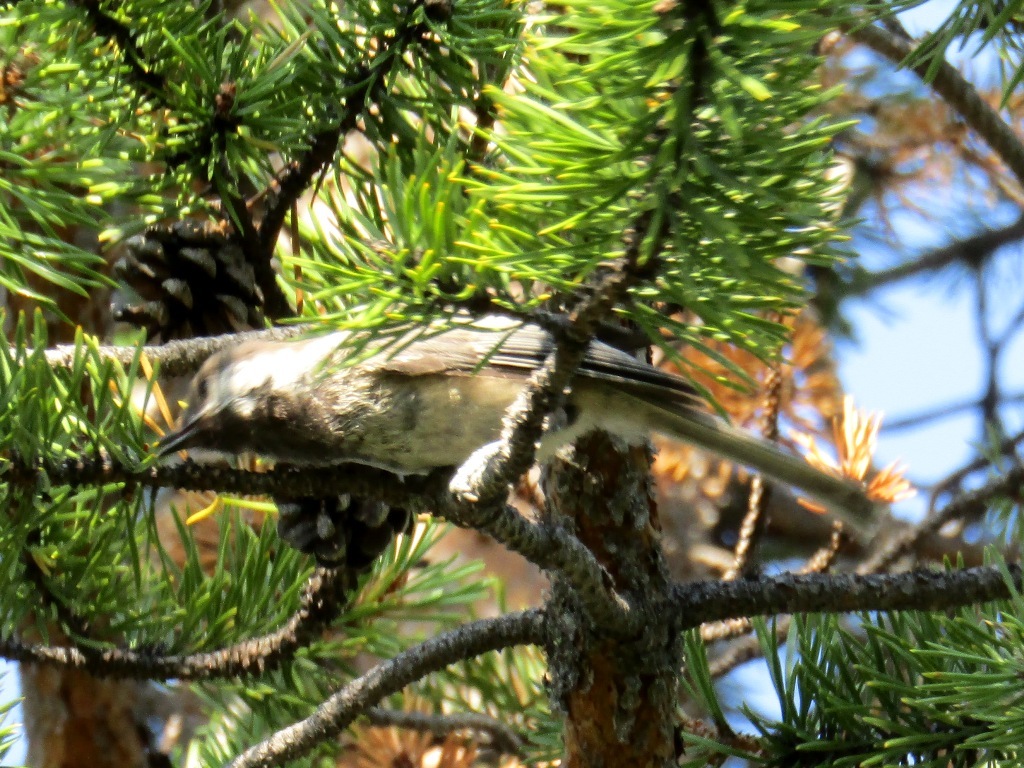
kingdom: Animalia
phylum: Chordata
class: Aves
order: Passeriformes
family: Paridae
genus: Poecile
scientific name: Poecile cinctus
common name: Gray-headed chickadee
